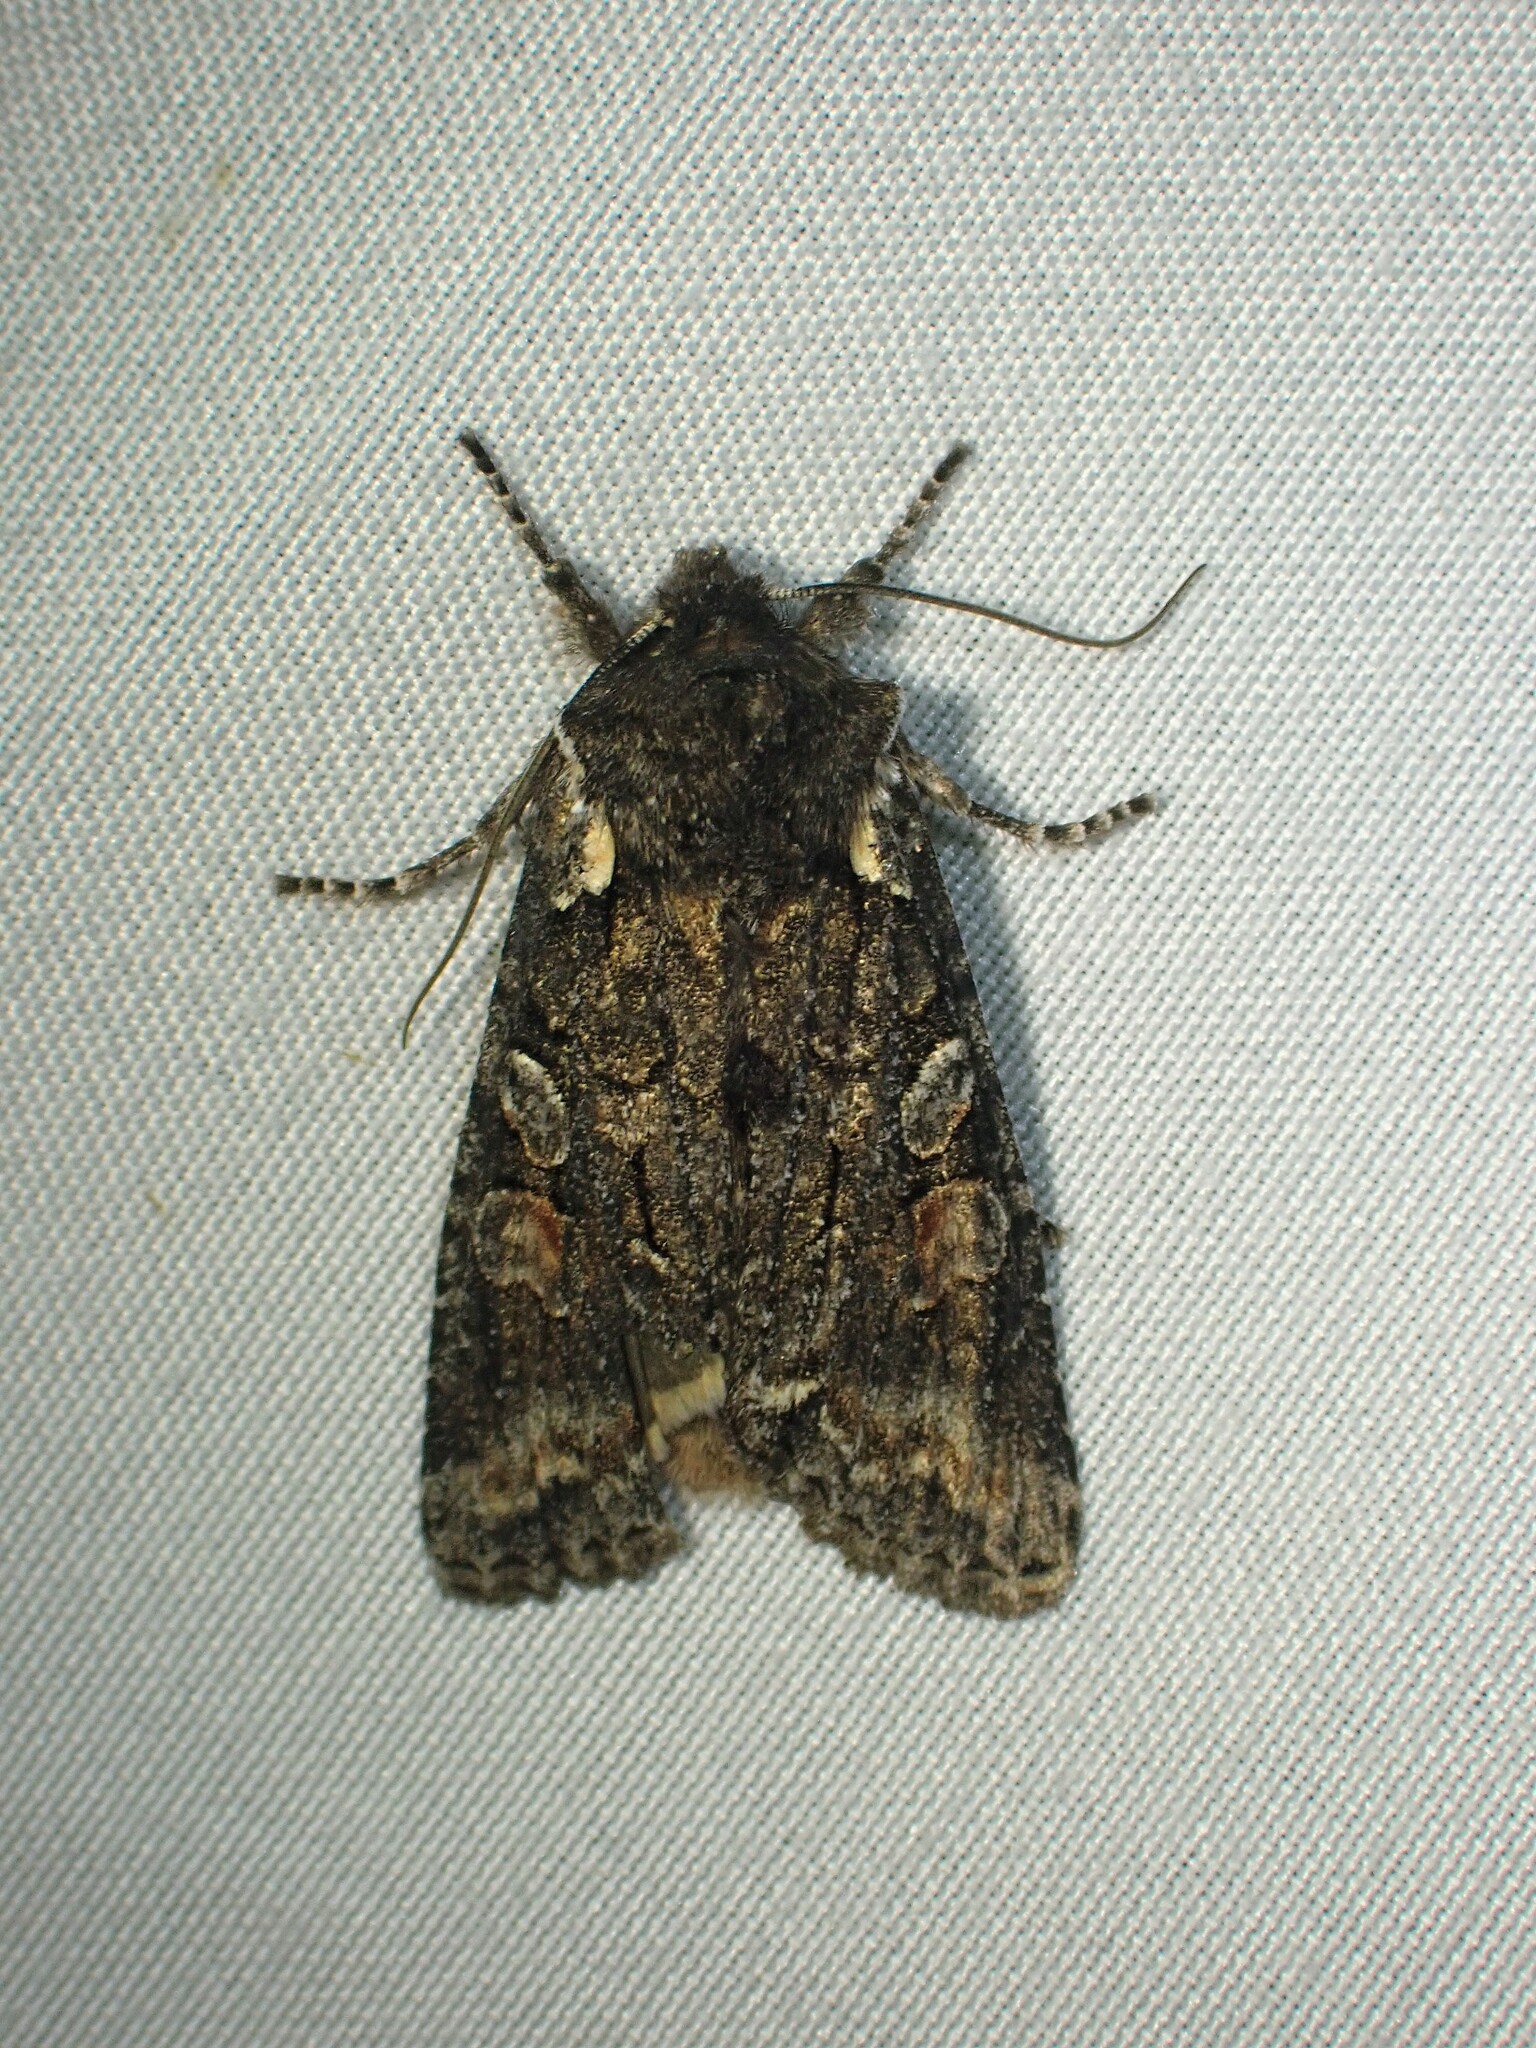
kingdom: Animalia
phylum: Arthropoda
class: Insecta
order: Lepidoptera
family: Noctuidae
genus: Lithophane
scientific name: Lithophane pexata
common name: Plush-naped pinion moth
